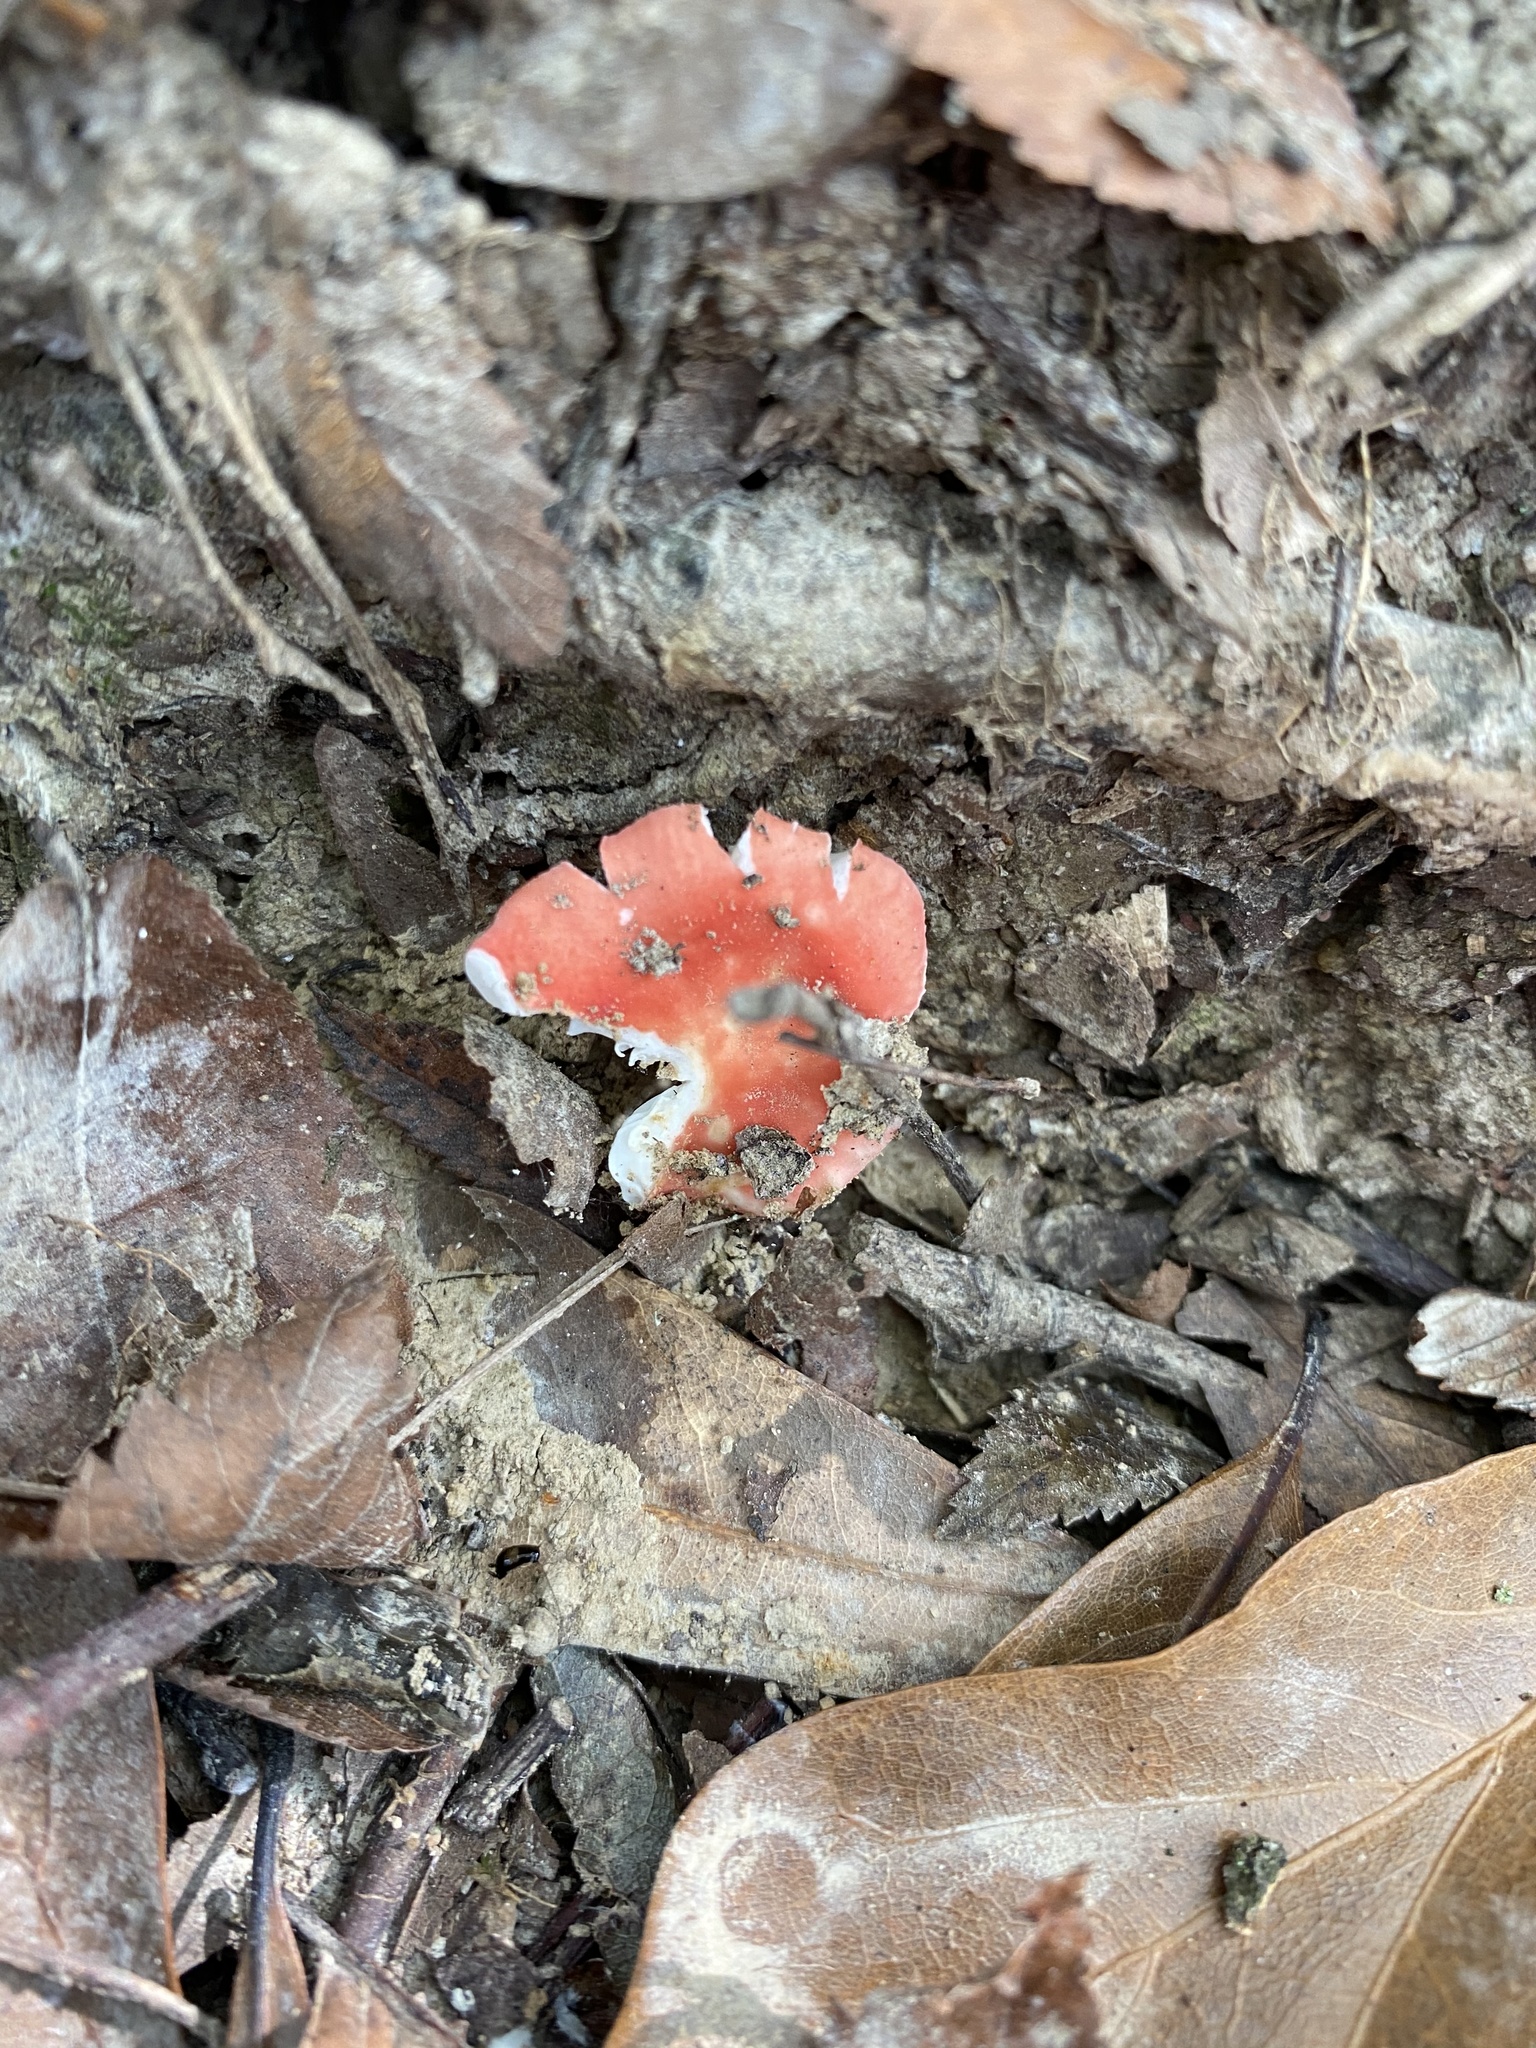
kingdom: Fungi
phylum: Basidiomycota
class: Agaricomycetes
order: Russulales
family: Russulaceae
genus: Russula
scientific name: Russula
